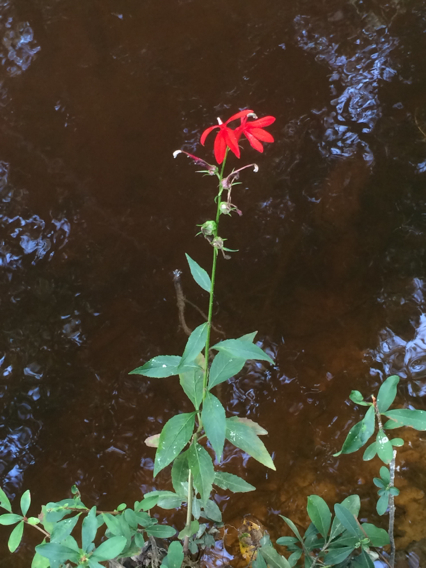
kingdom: Plantae
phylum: Tracheophyta
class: Magnoliopsida
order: Asterales
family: Campanulaceae
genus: Lobelia
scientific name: Lobelia cardinalis
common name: Cardinal flower
